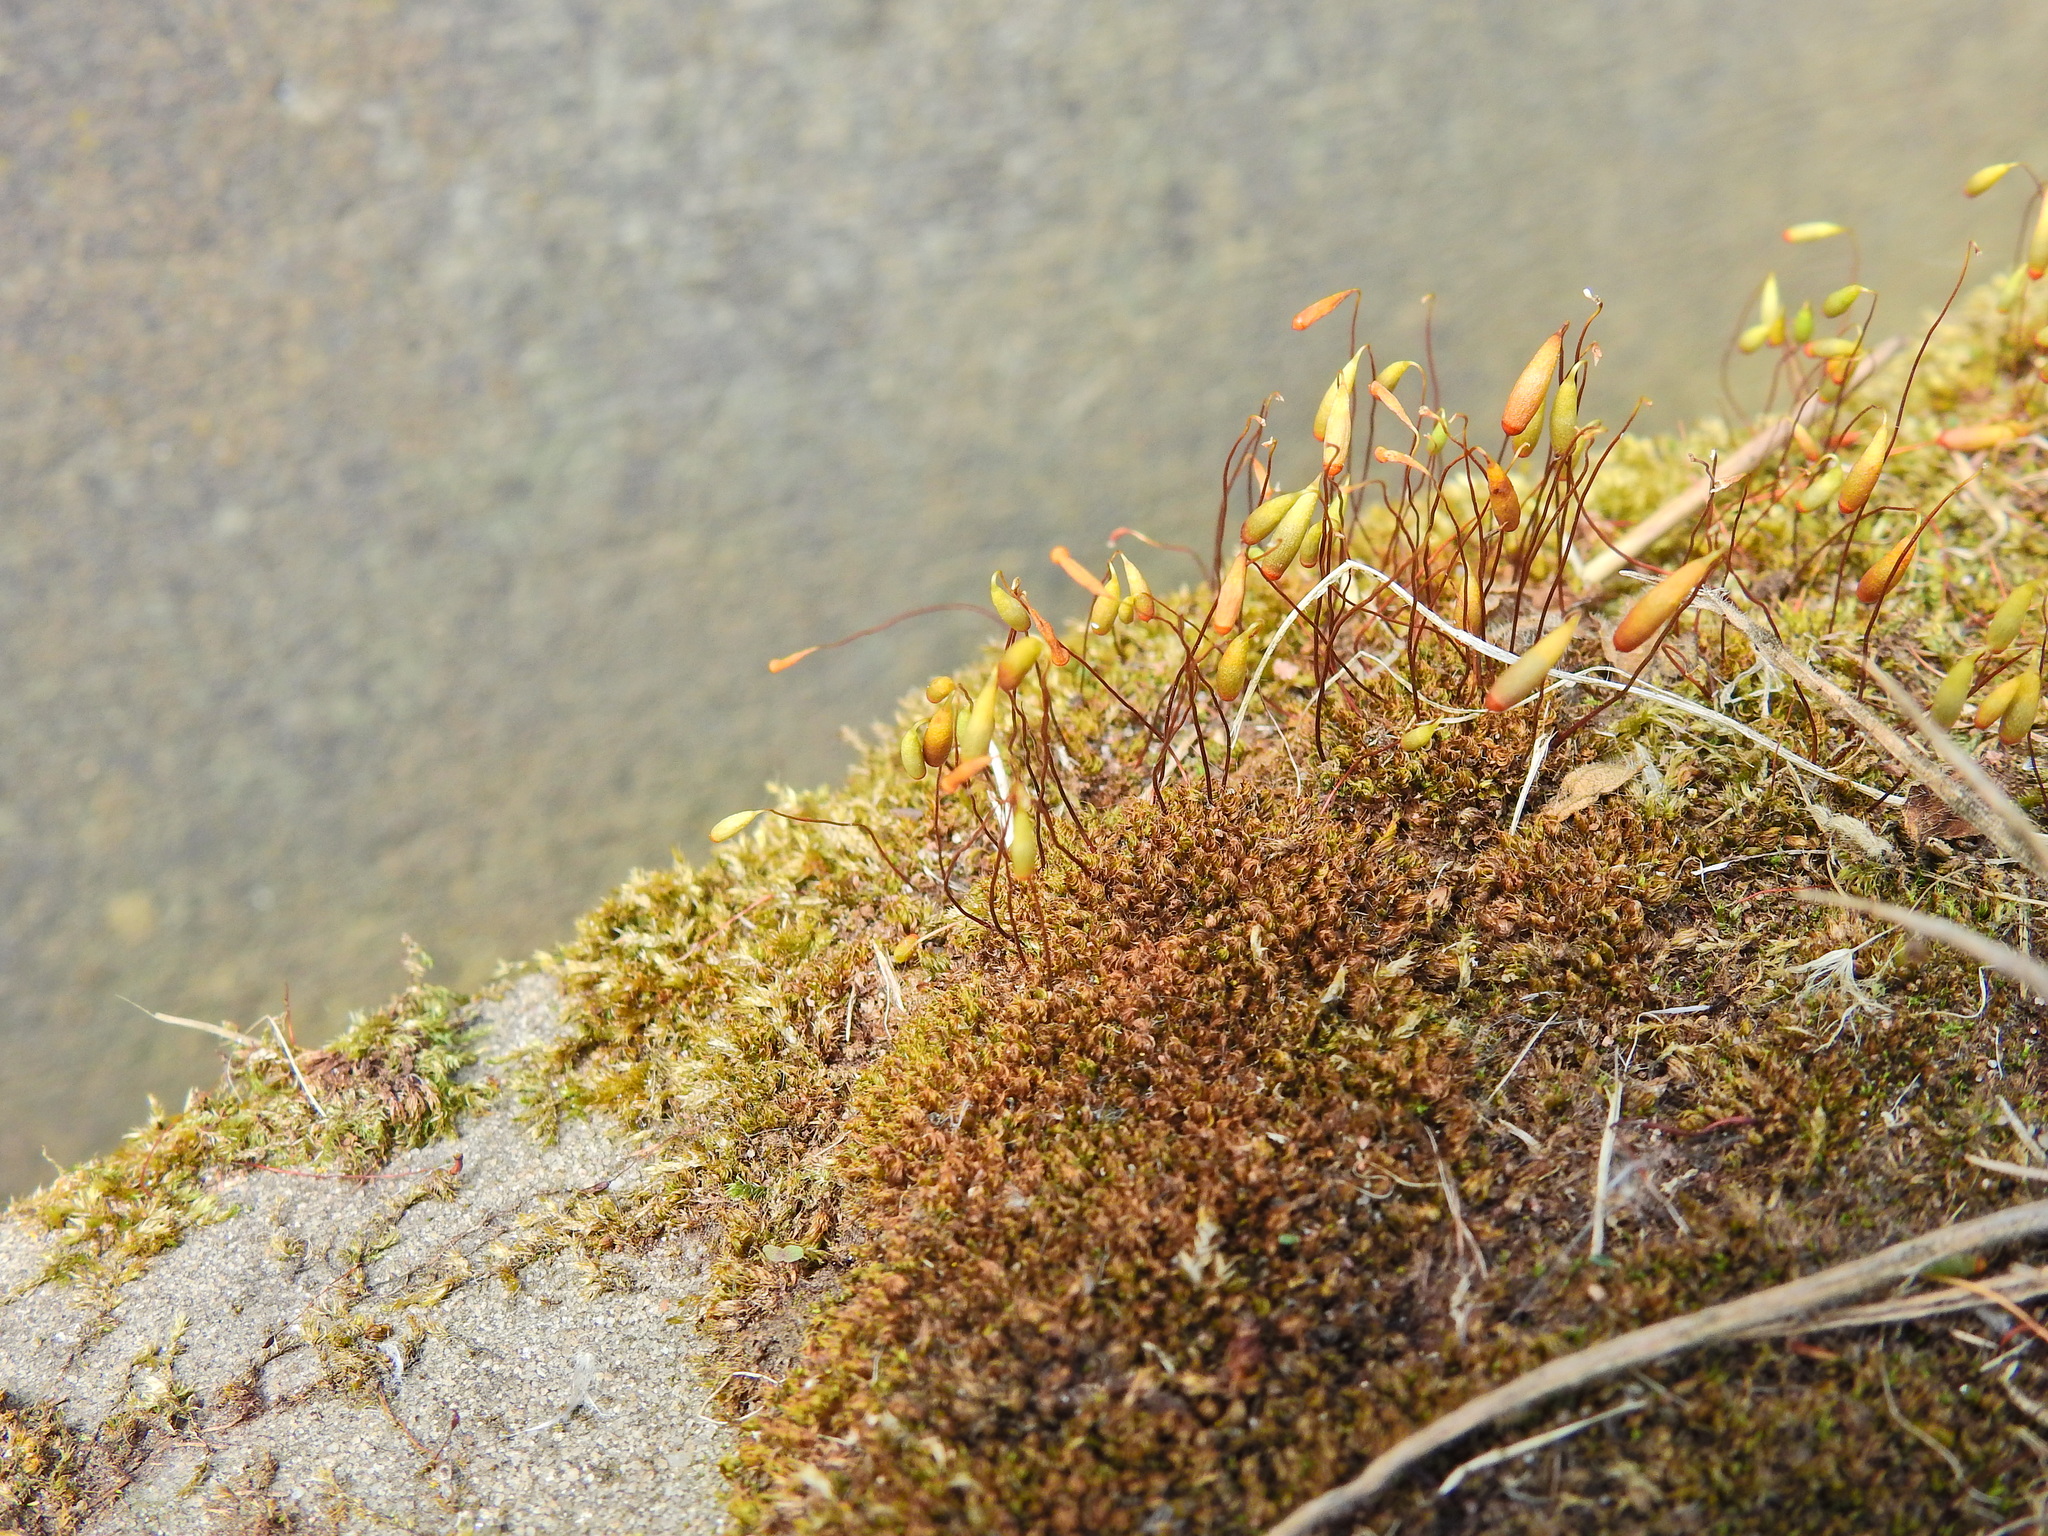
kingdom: Plantae
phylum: Bryophyta
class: Bryopsida
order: Bryales
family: Bryaceae
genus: Rosulabryum
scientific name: Rosulabryum capillare
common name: Capillary thread-moss
